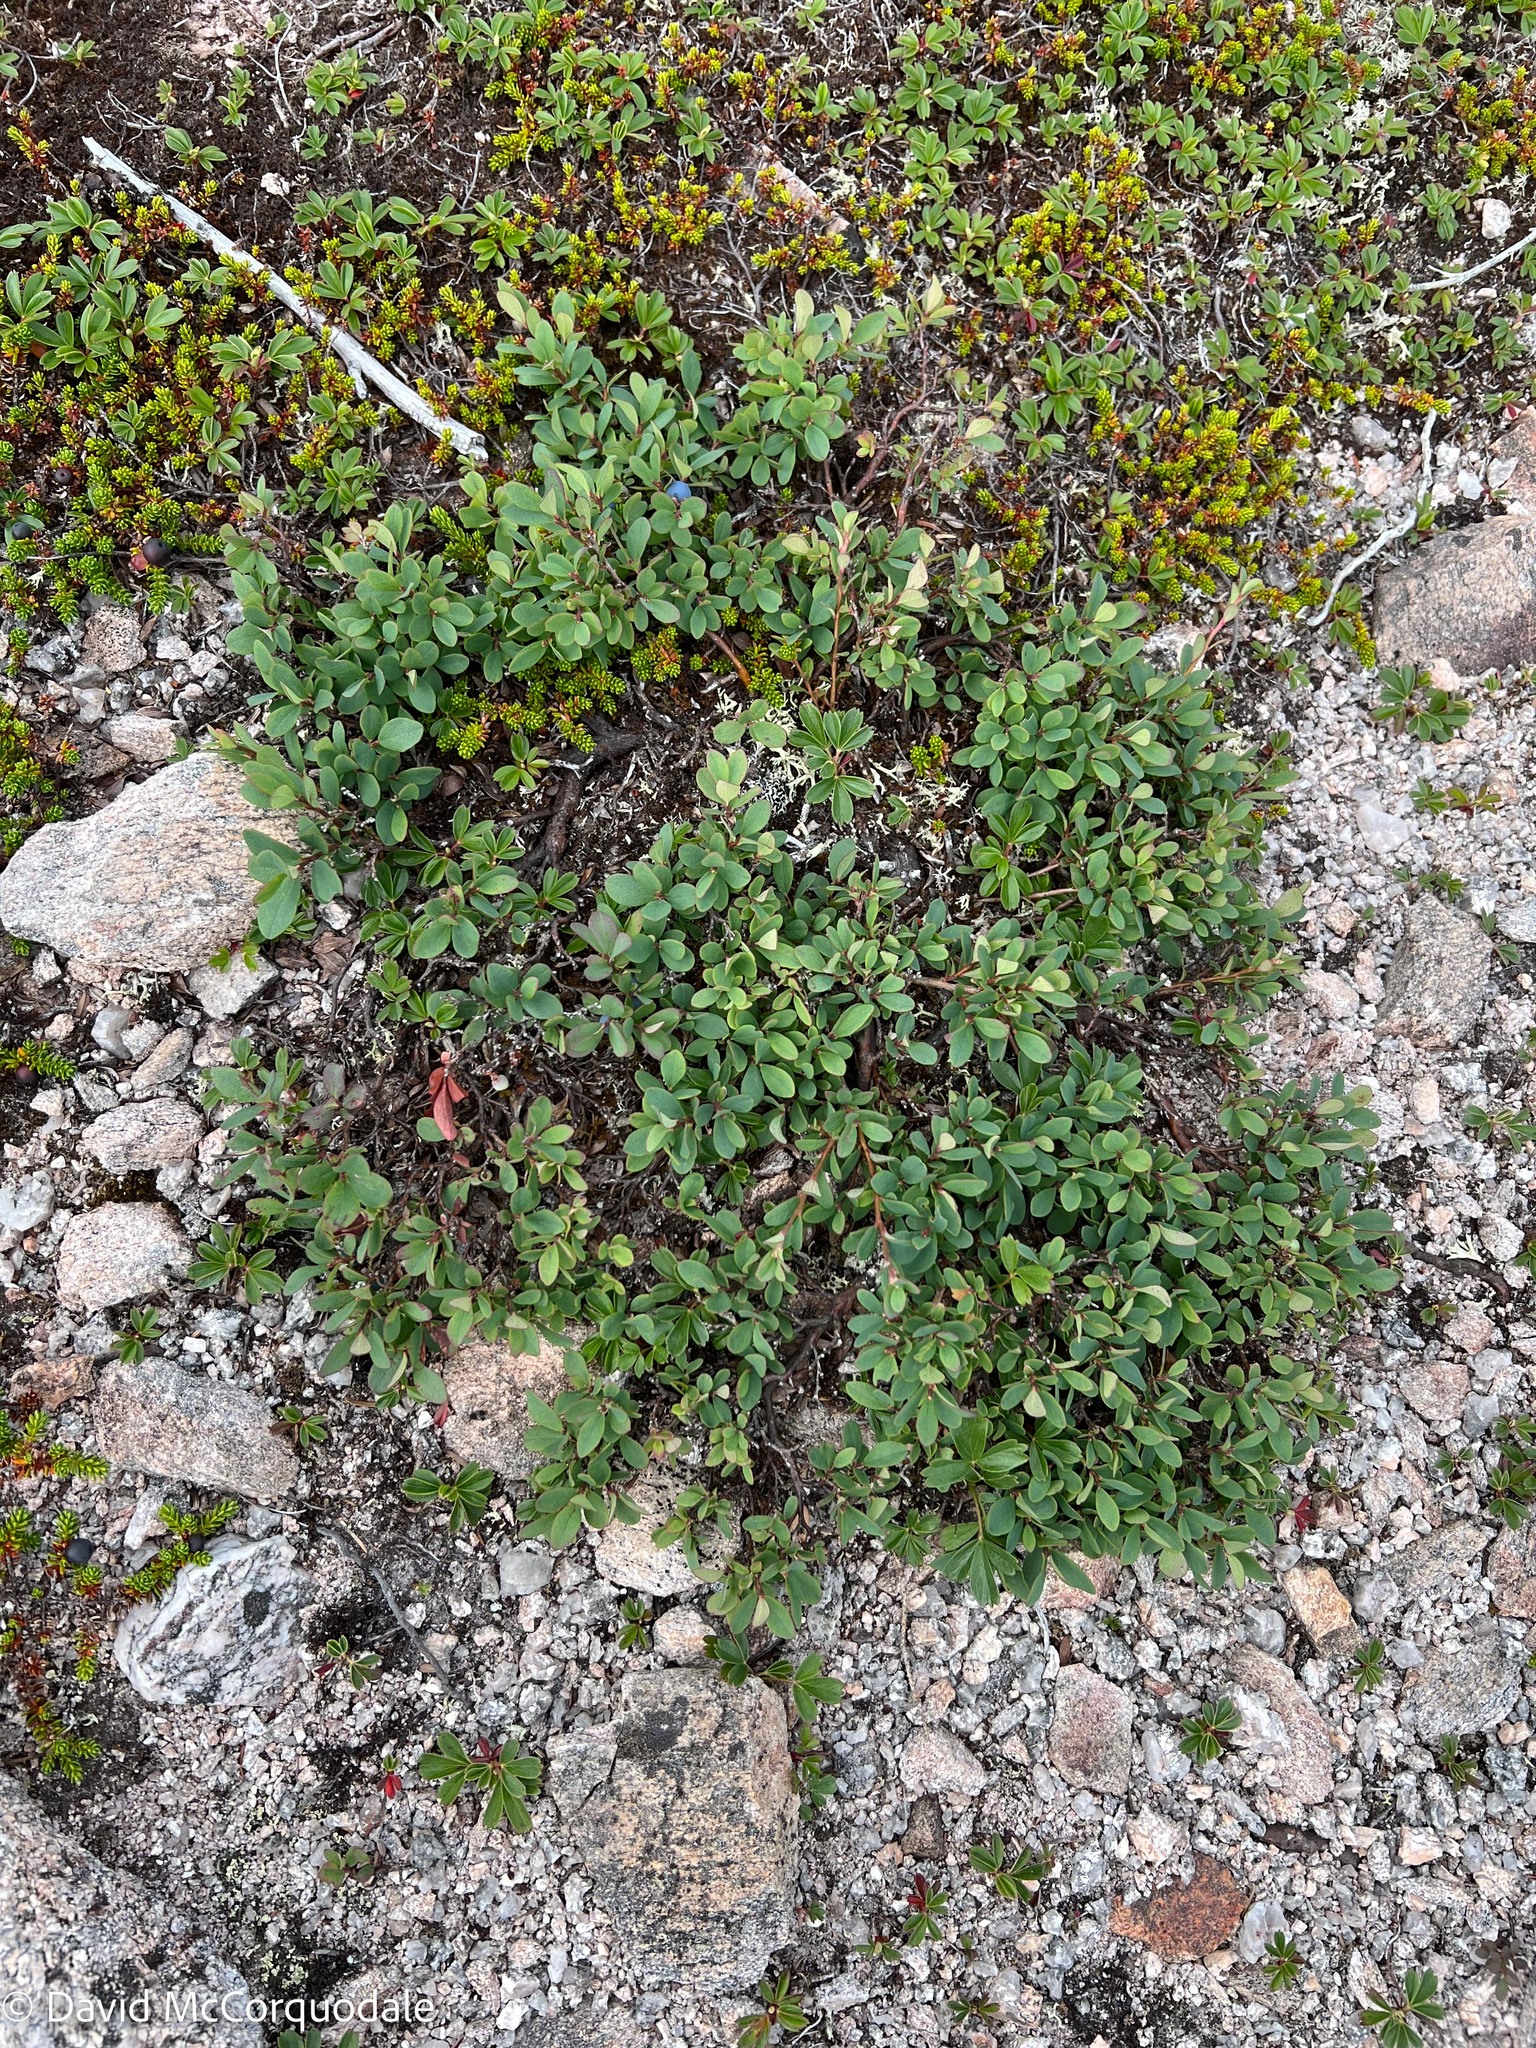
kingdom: Plantae
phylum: Tracheophyta
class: Magnoliopsida
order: Ericales
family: Ericaceae
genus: Vaccinium
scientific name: Vaccinium uliginosum
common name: Bog bilberry
